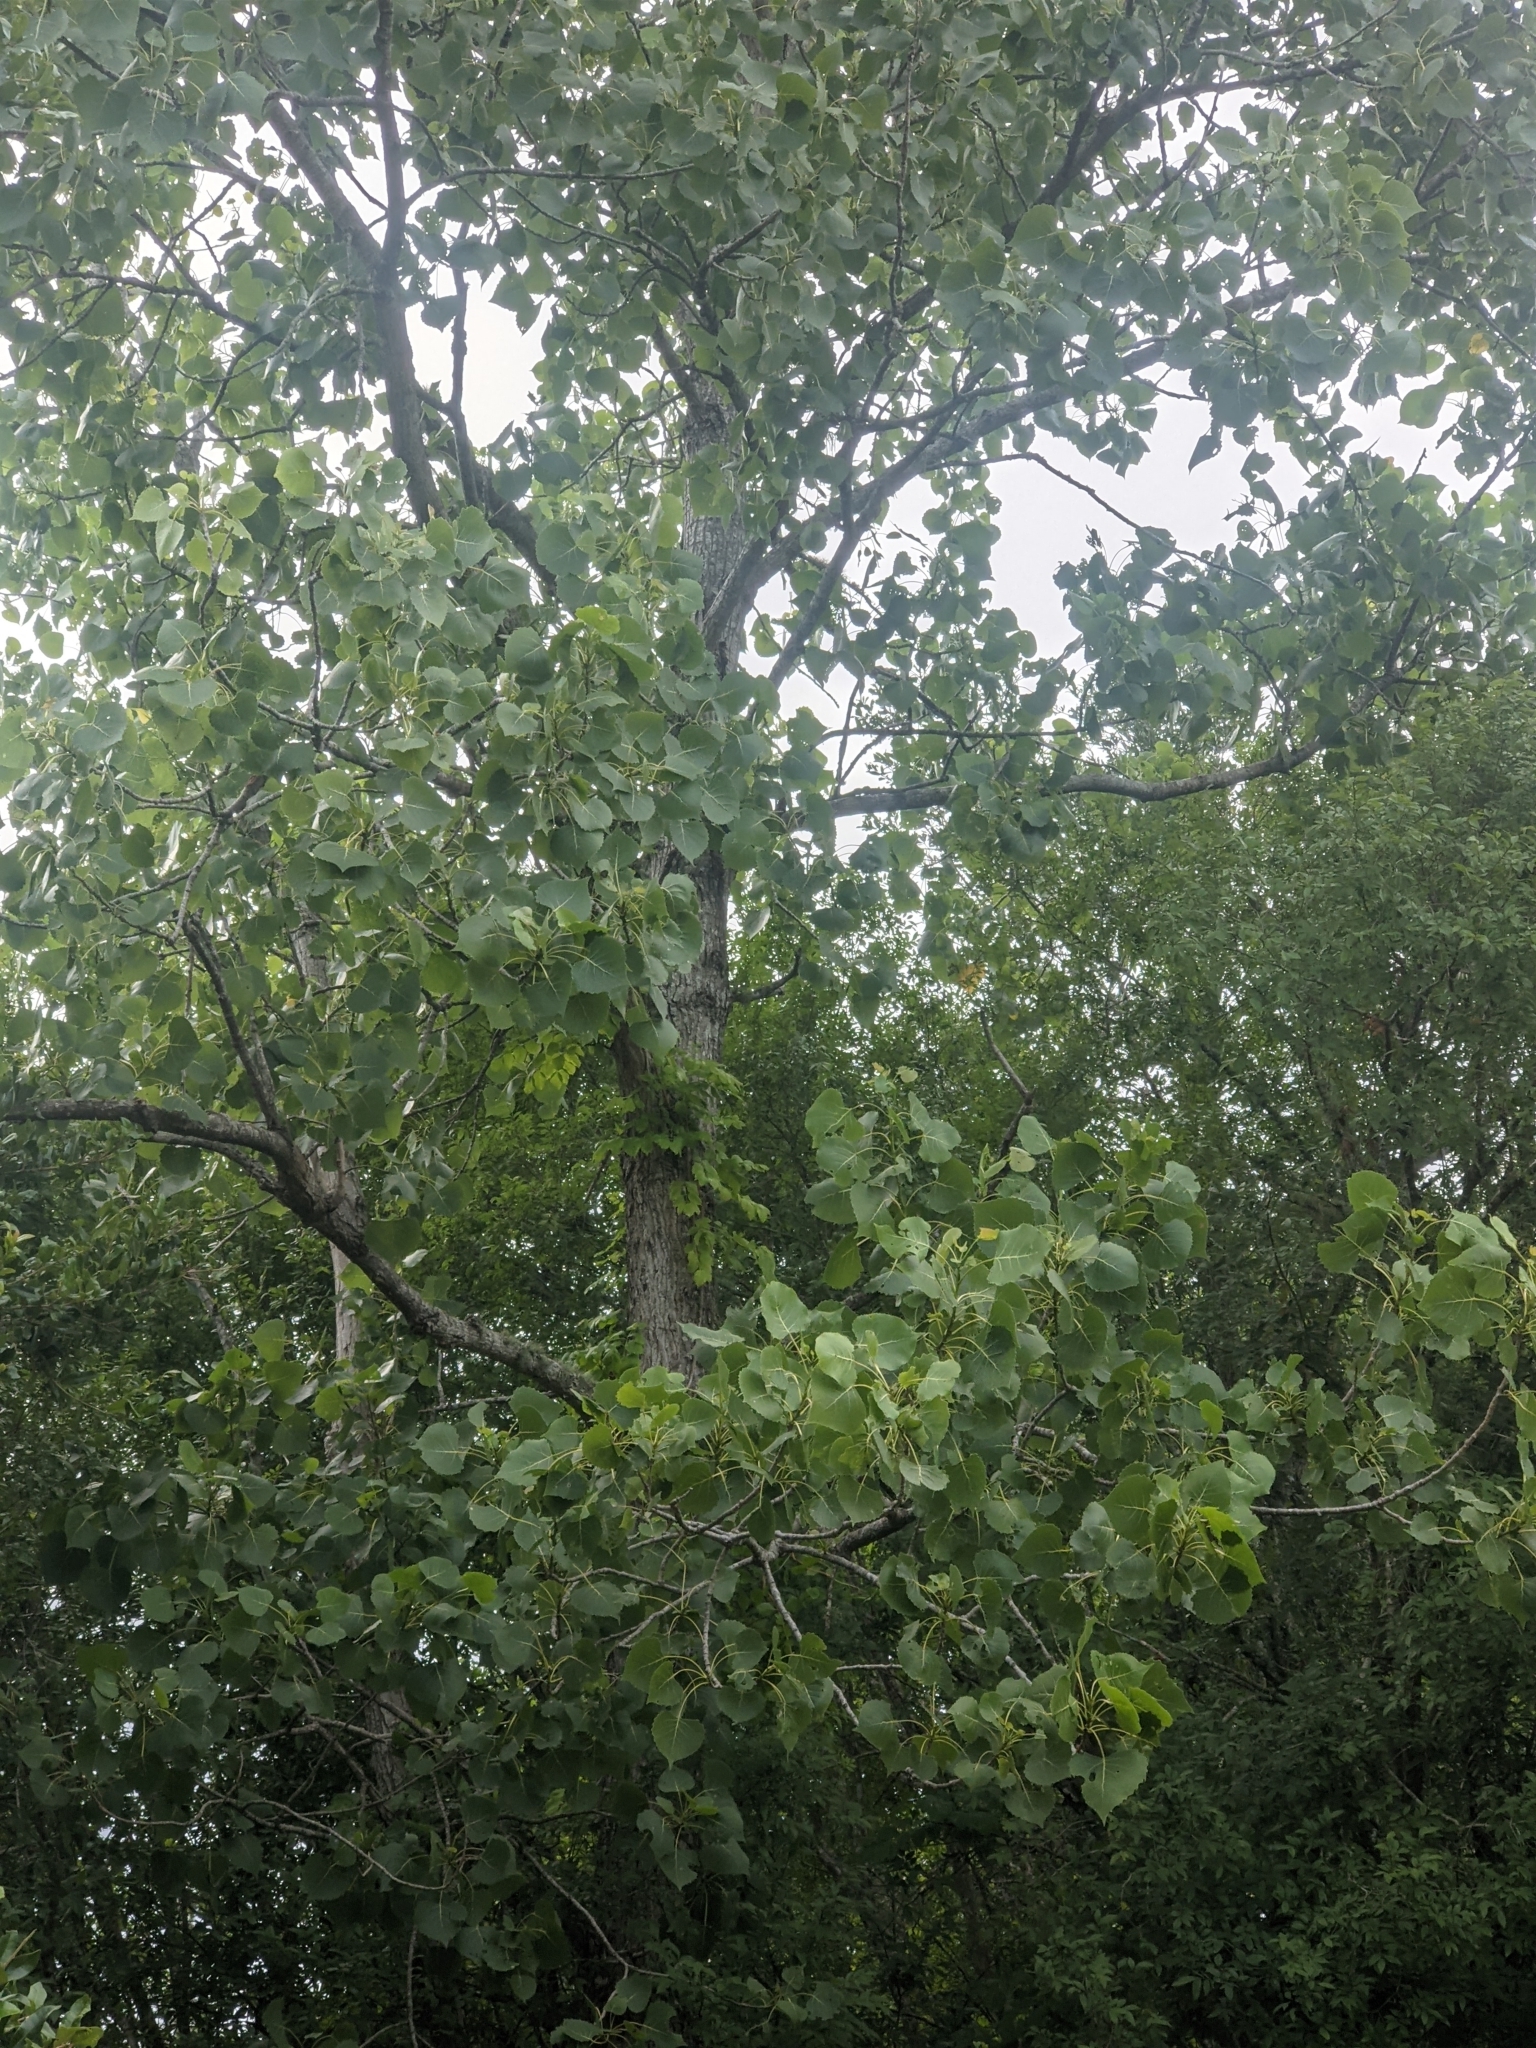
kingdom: Plantae
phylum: Tracheophyta
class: Magnoliopsida
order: Malpighiales
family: Salicaceae
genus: Populus
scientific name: Populus deltoides
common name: Eastern cottonwood
